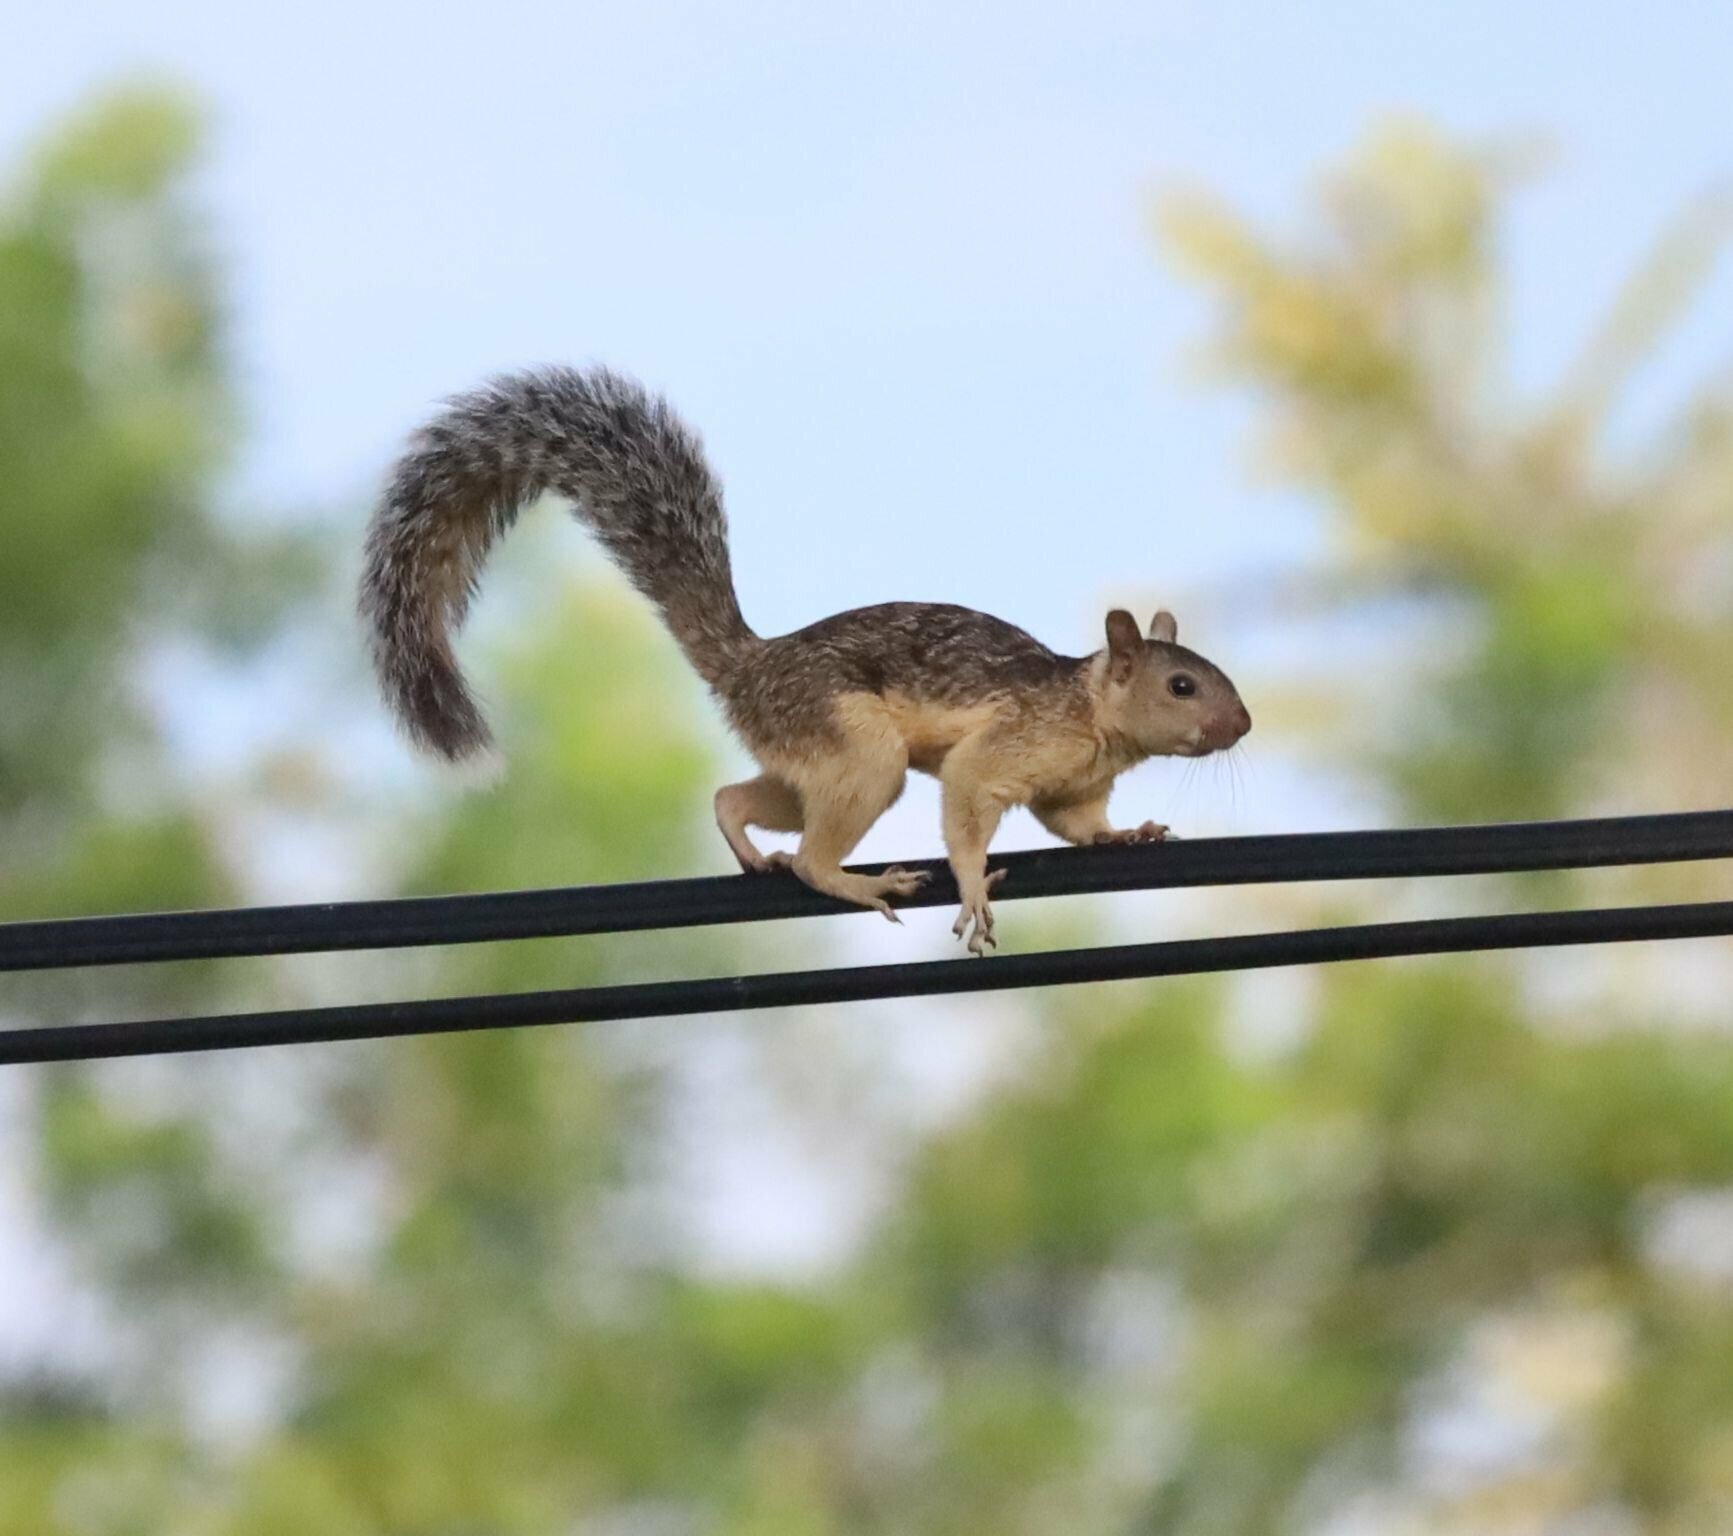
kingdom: Animalia
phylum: Chordata
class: Mammalia
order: Rodentia
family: Sciuridae
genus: Sciurus
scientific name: Sciurus variegatoides
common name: Variegated squirrel
